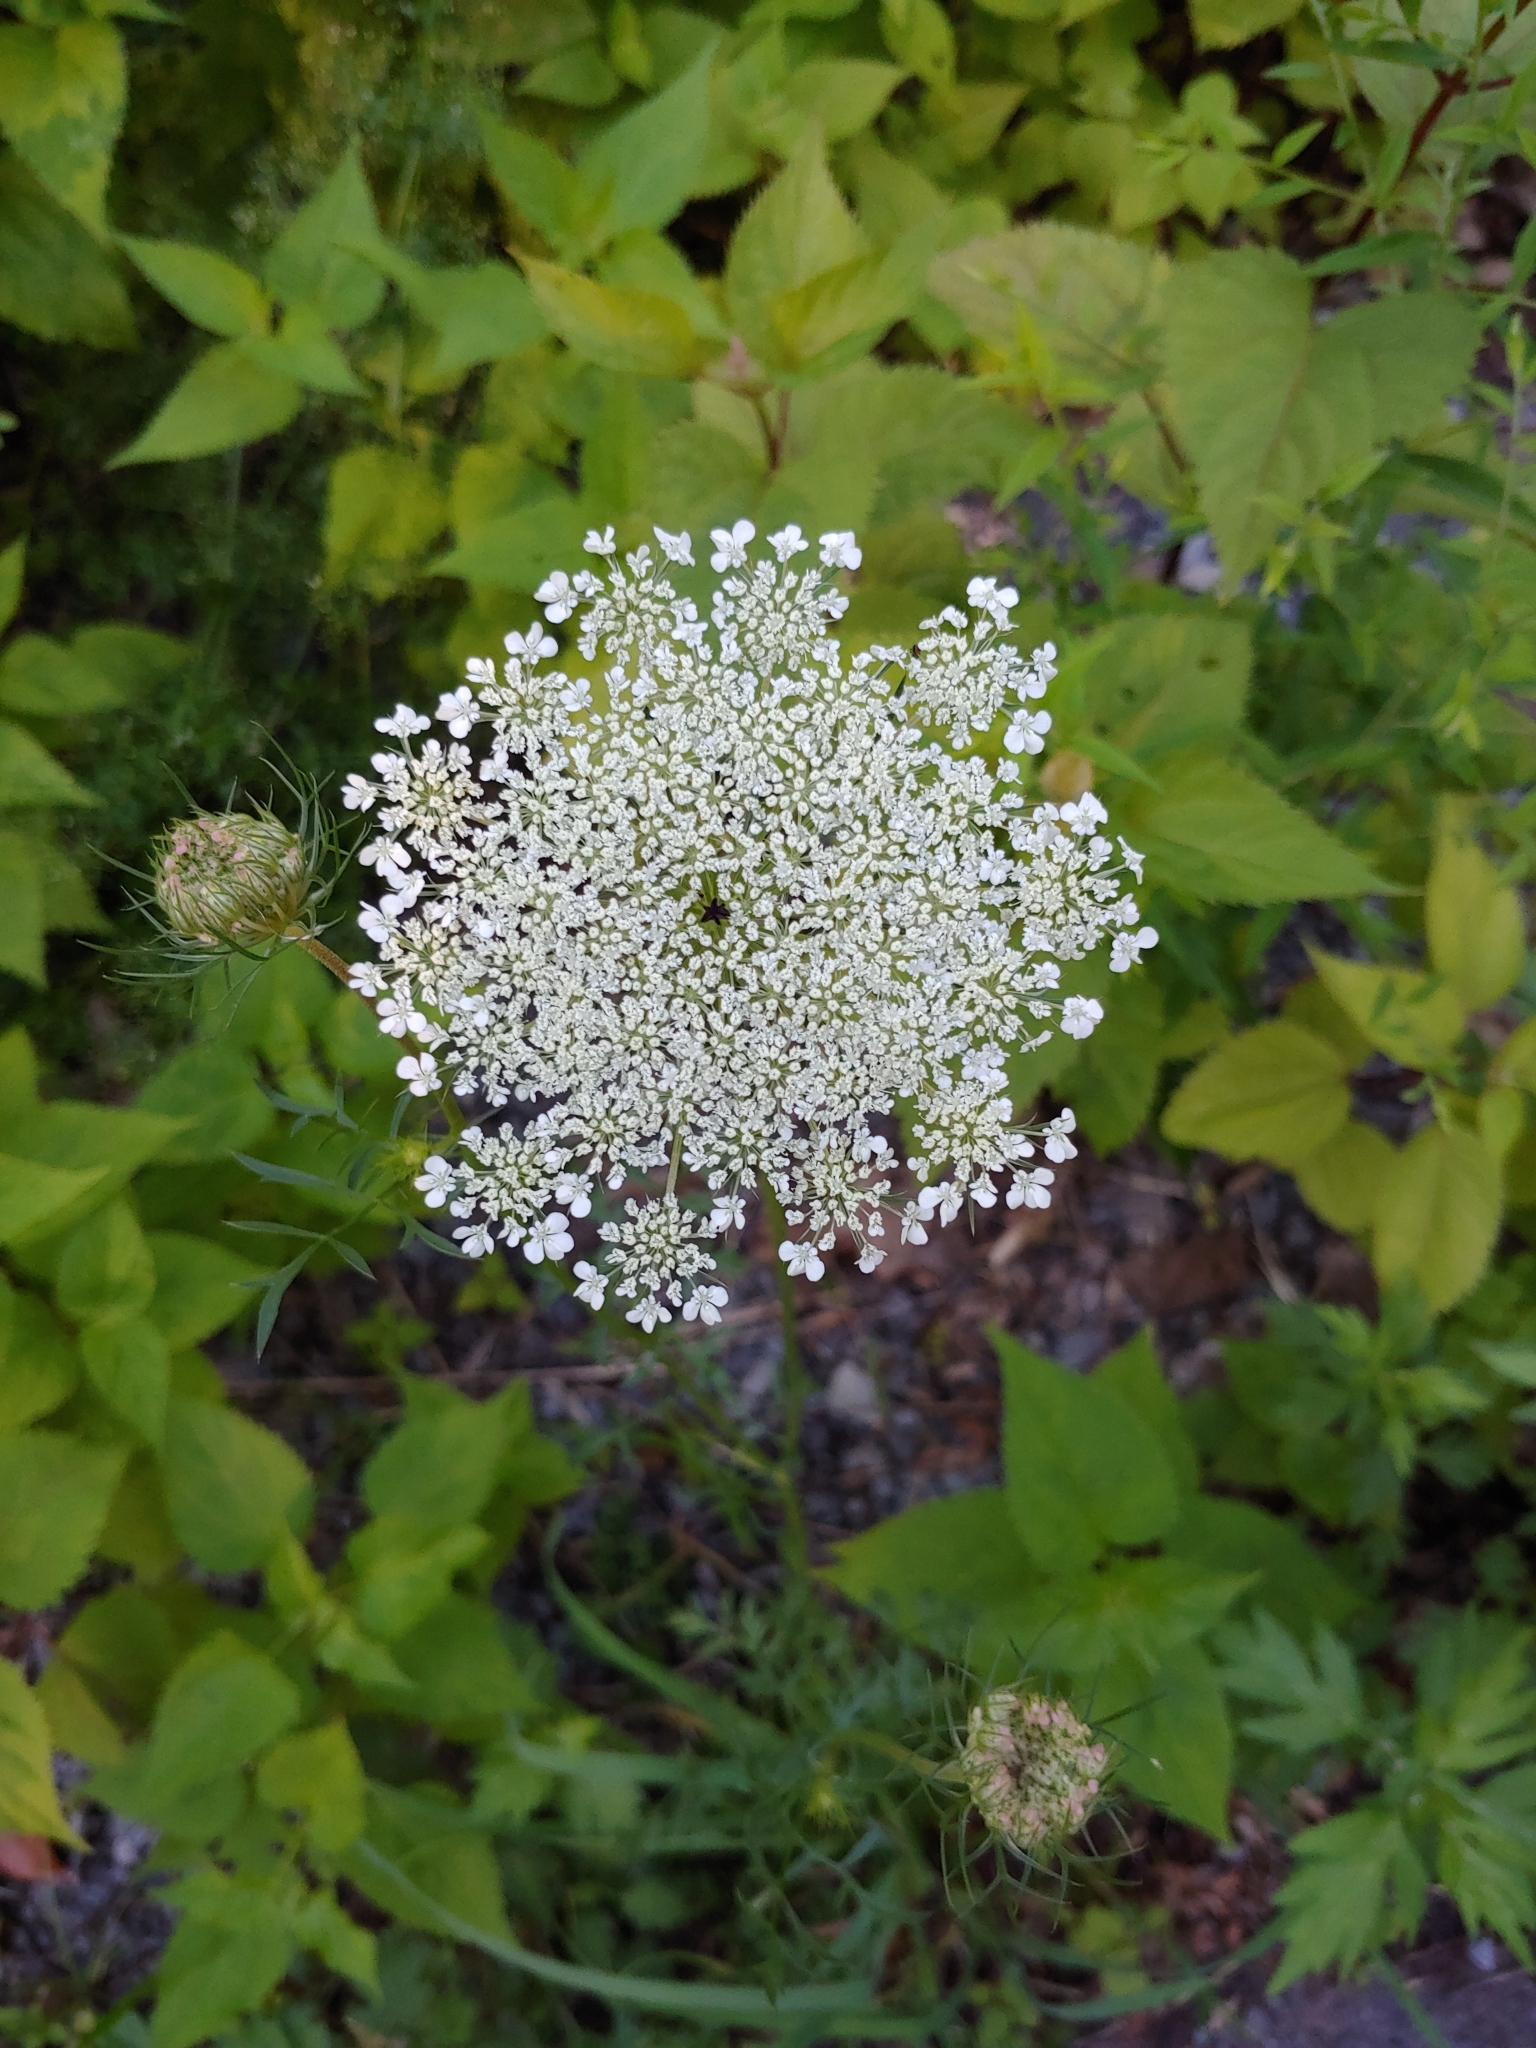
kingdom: Plantae
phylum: Tracheophyta
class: Magnoliopsida
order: Apiales
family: Apiaceae
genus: Daucus
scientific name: Daucus carota
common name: Wild carrot
